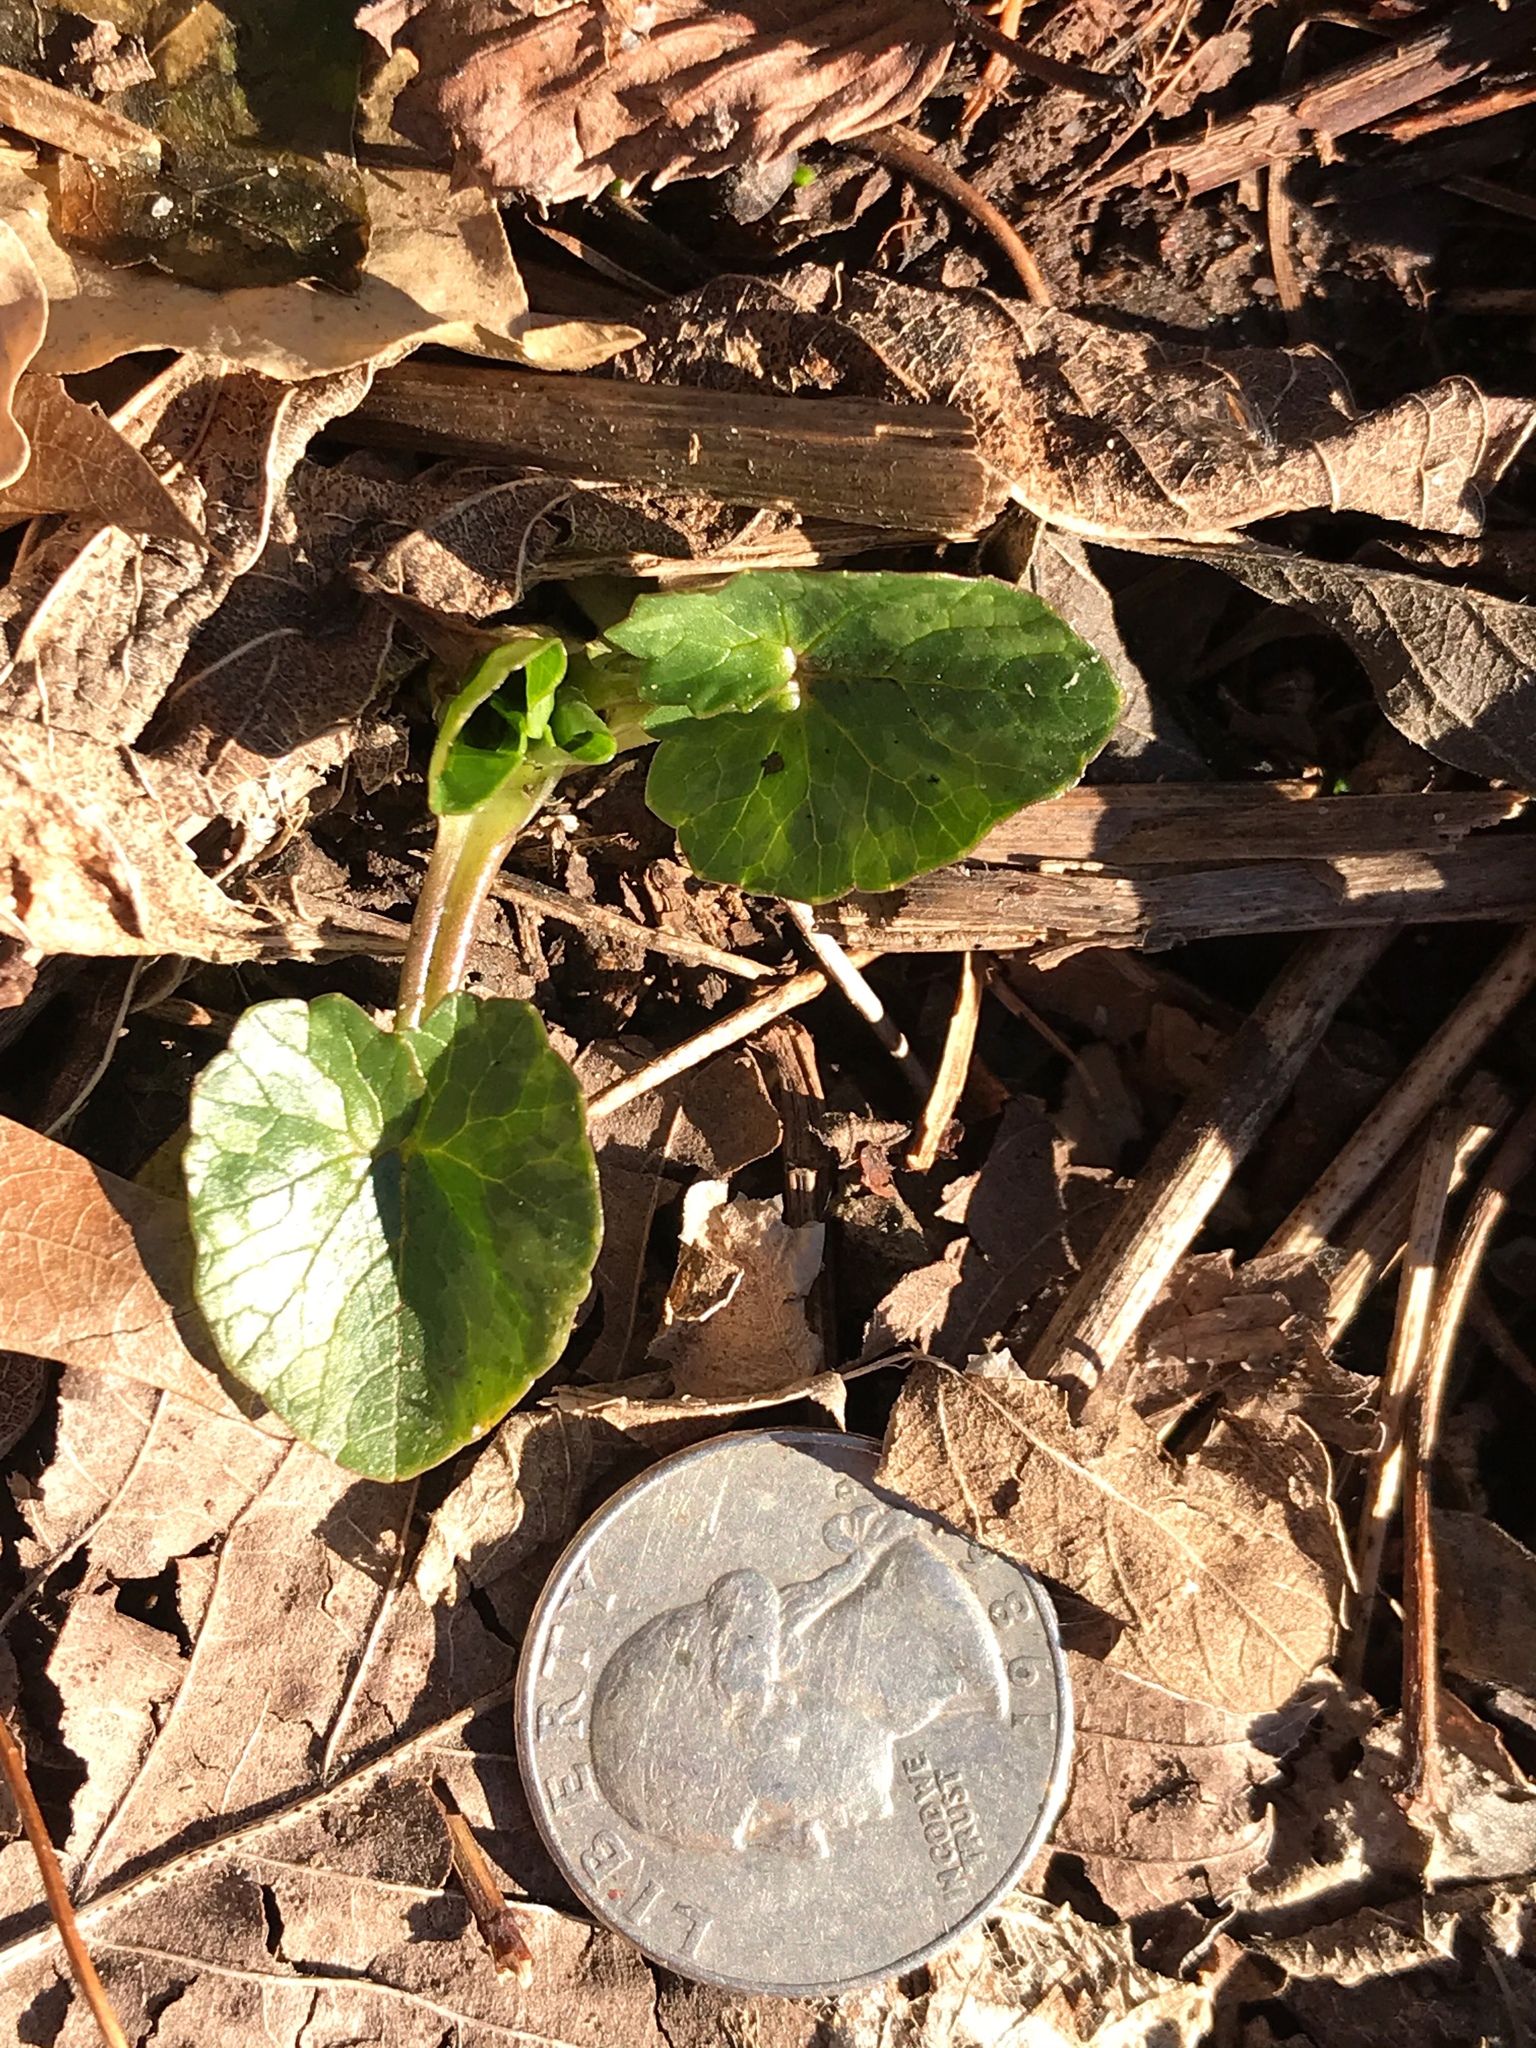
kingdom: Plantae
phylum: Tracheophyta
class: Magnoliopsida
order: Ranunculales
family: Ranunculaceae
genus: Ficaria
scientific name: Ficaria verna
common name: Lesser celandine
